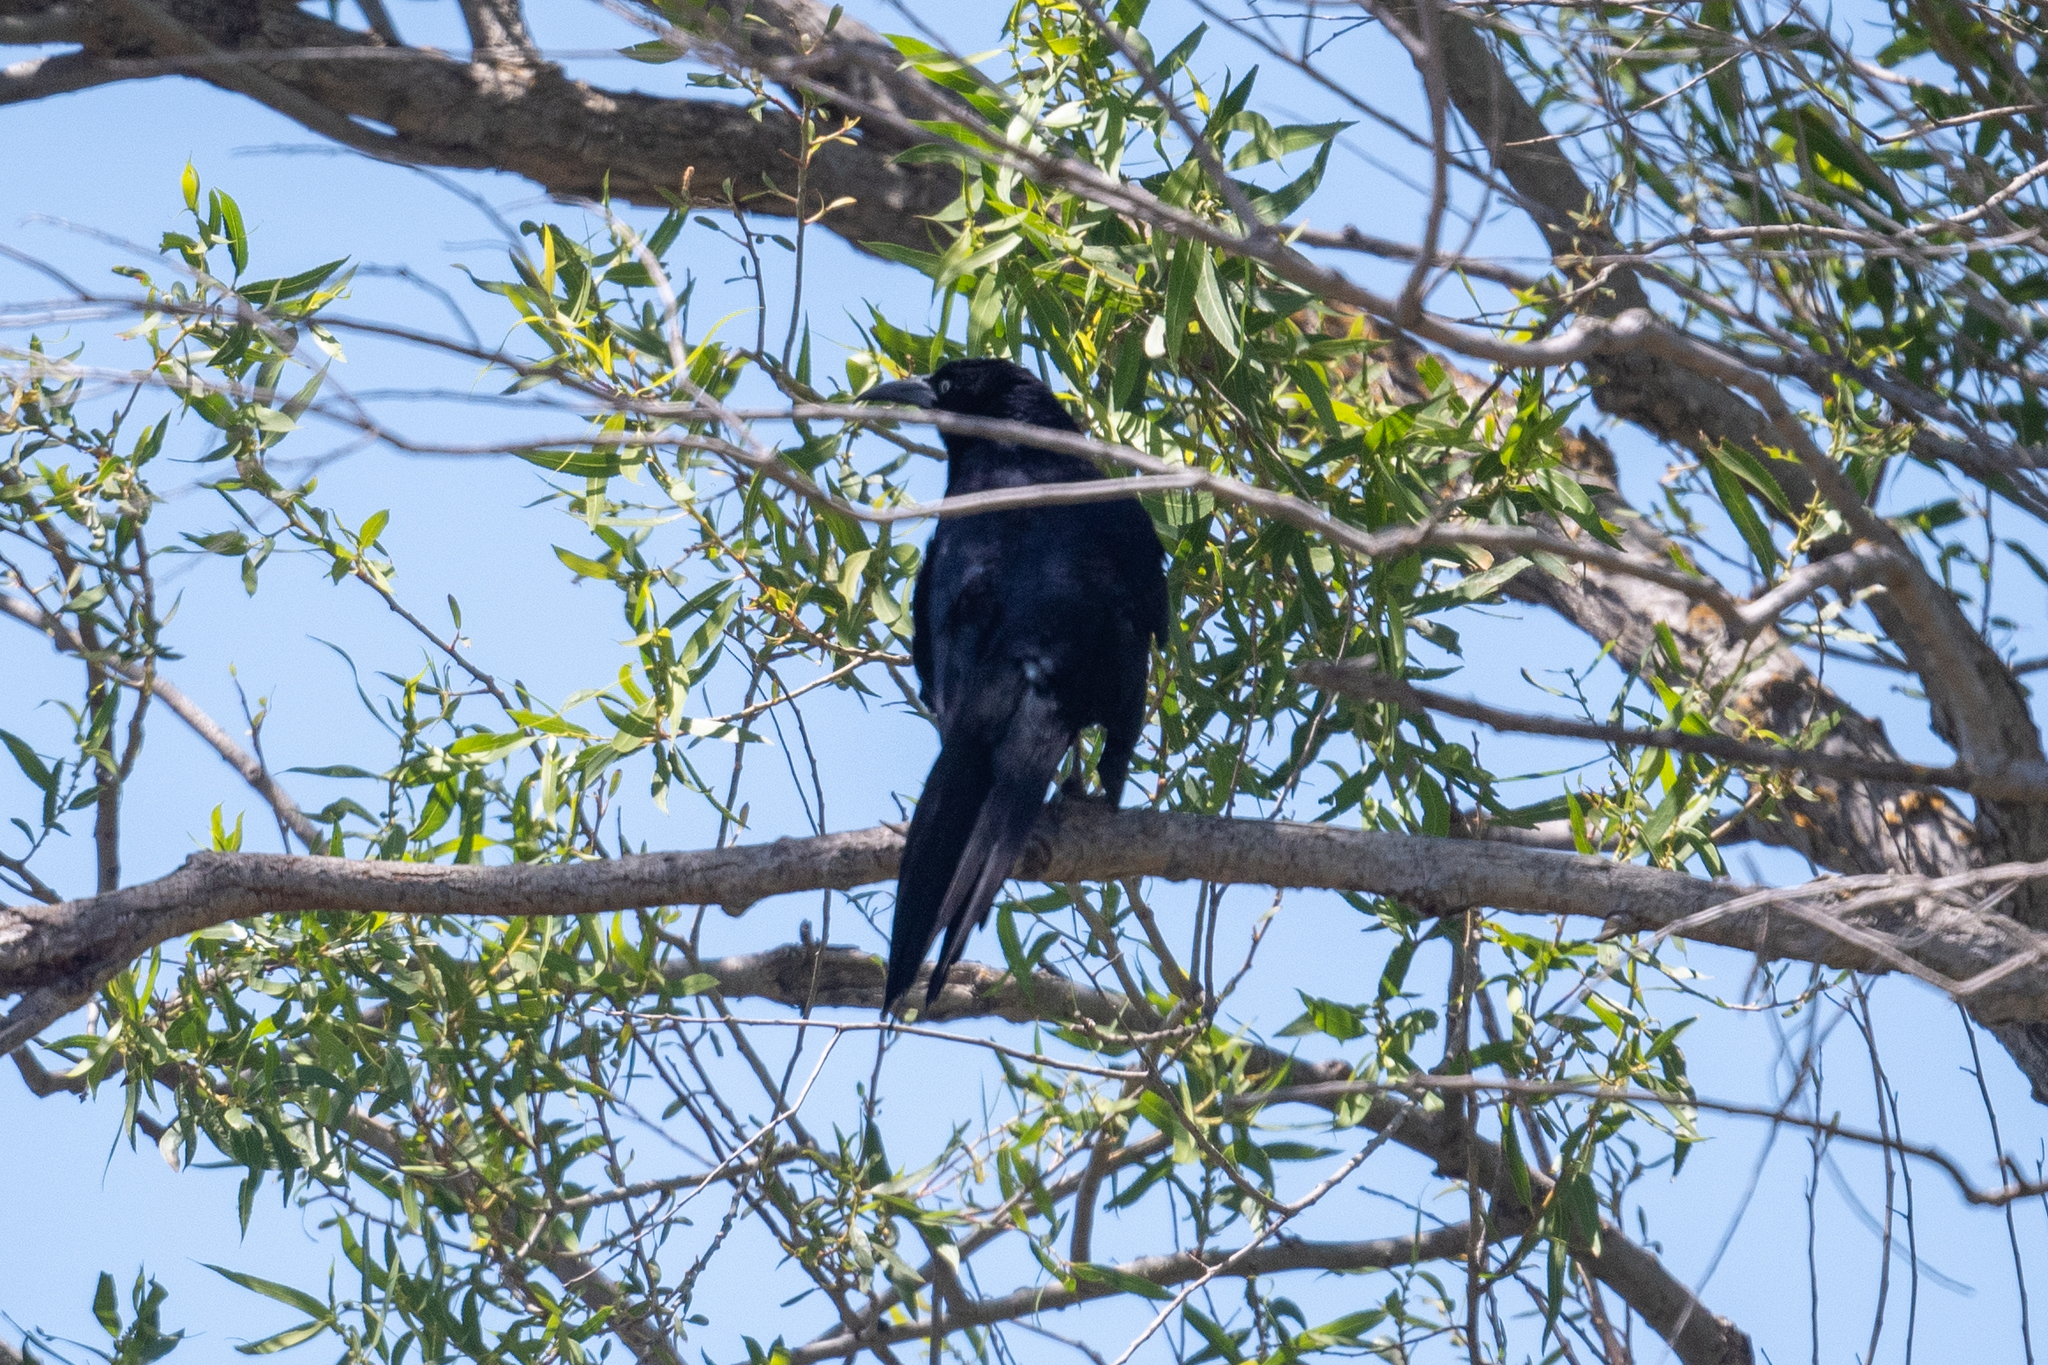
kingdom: Animalia
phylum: Chordata
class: Aves
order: Passeriformes
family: Icteridae
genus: Quiscalus
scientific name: Quiscalus mexicanus
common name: Great-tailed grackle
